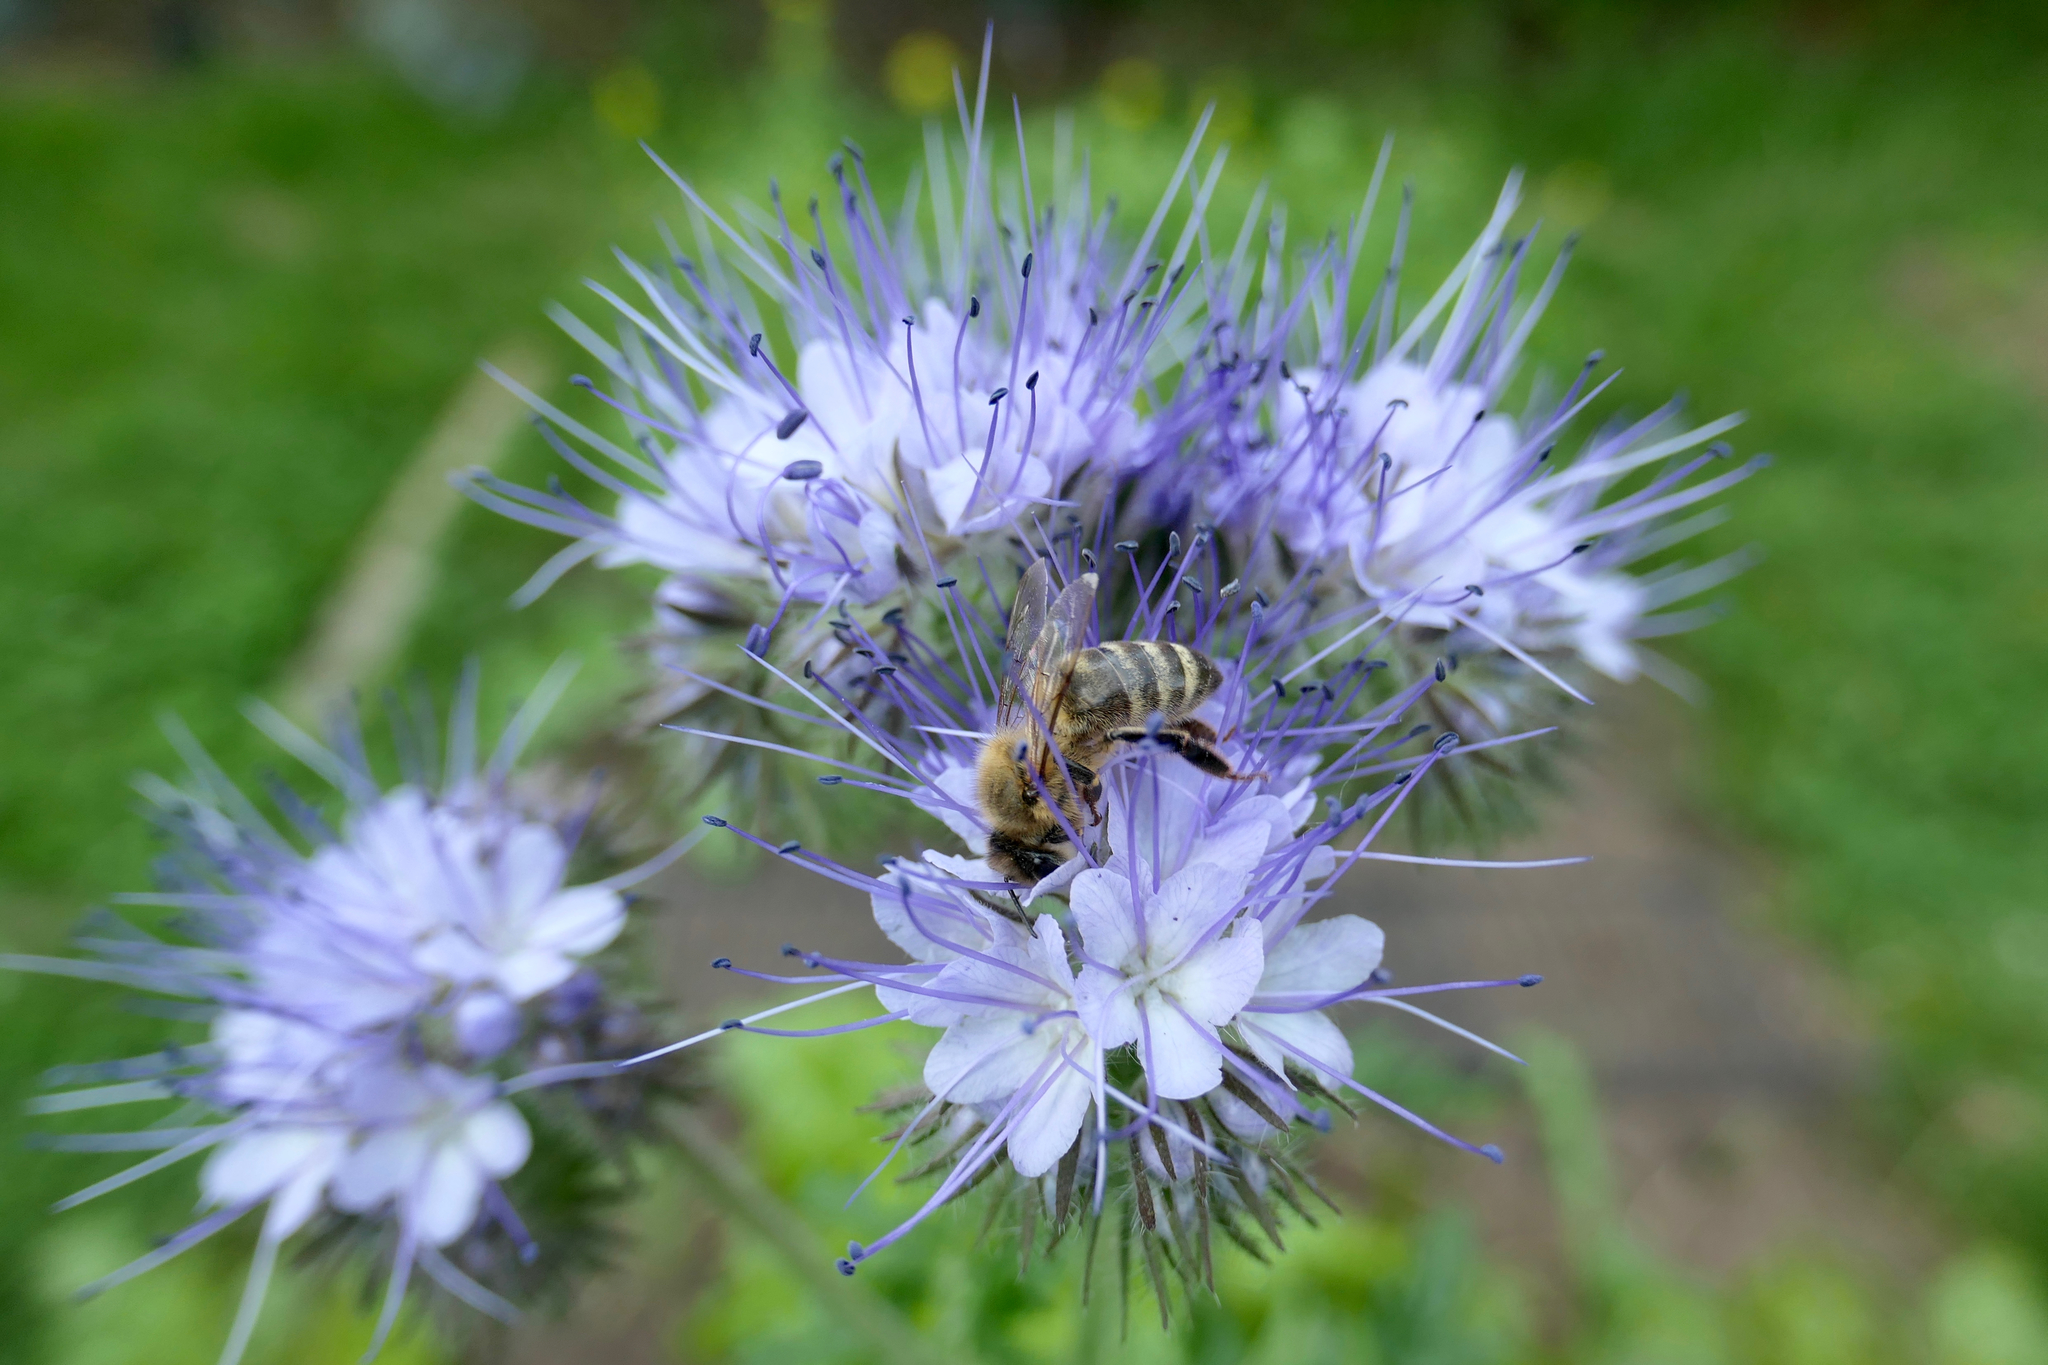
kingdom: Animalia
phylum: Arthropoda
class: Insecta
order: Hymenoptera
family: Apidae
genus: Apis
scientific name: Apis mellifera
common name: Honey bee
